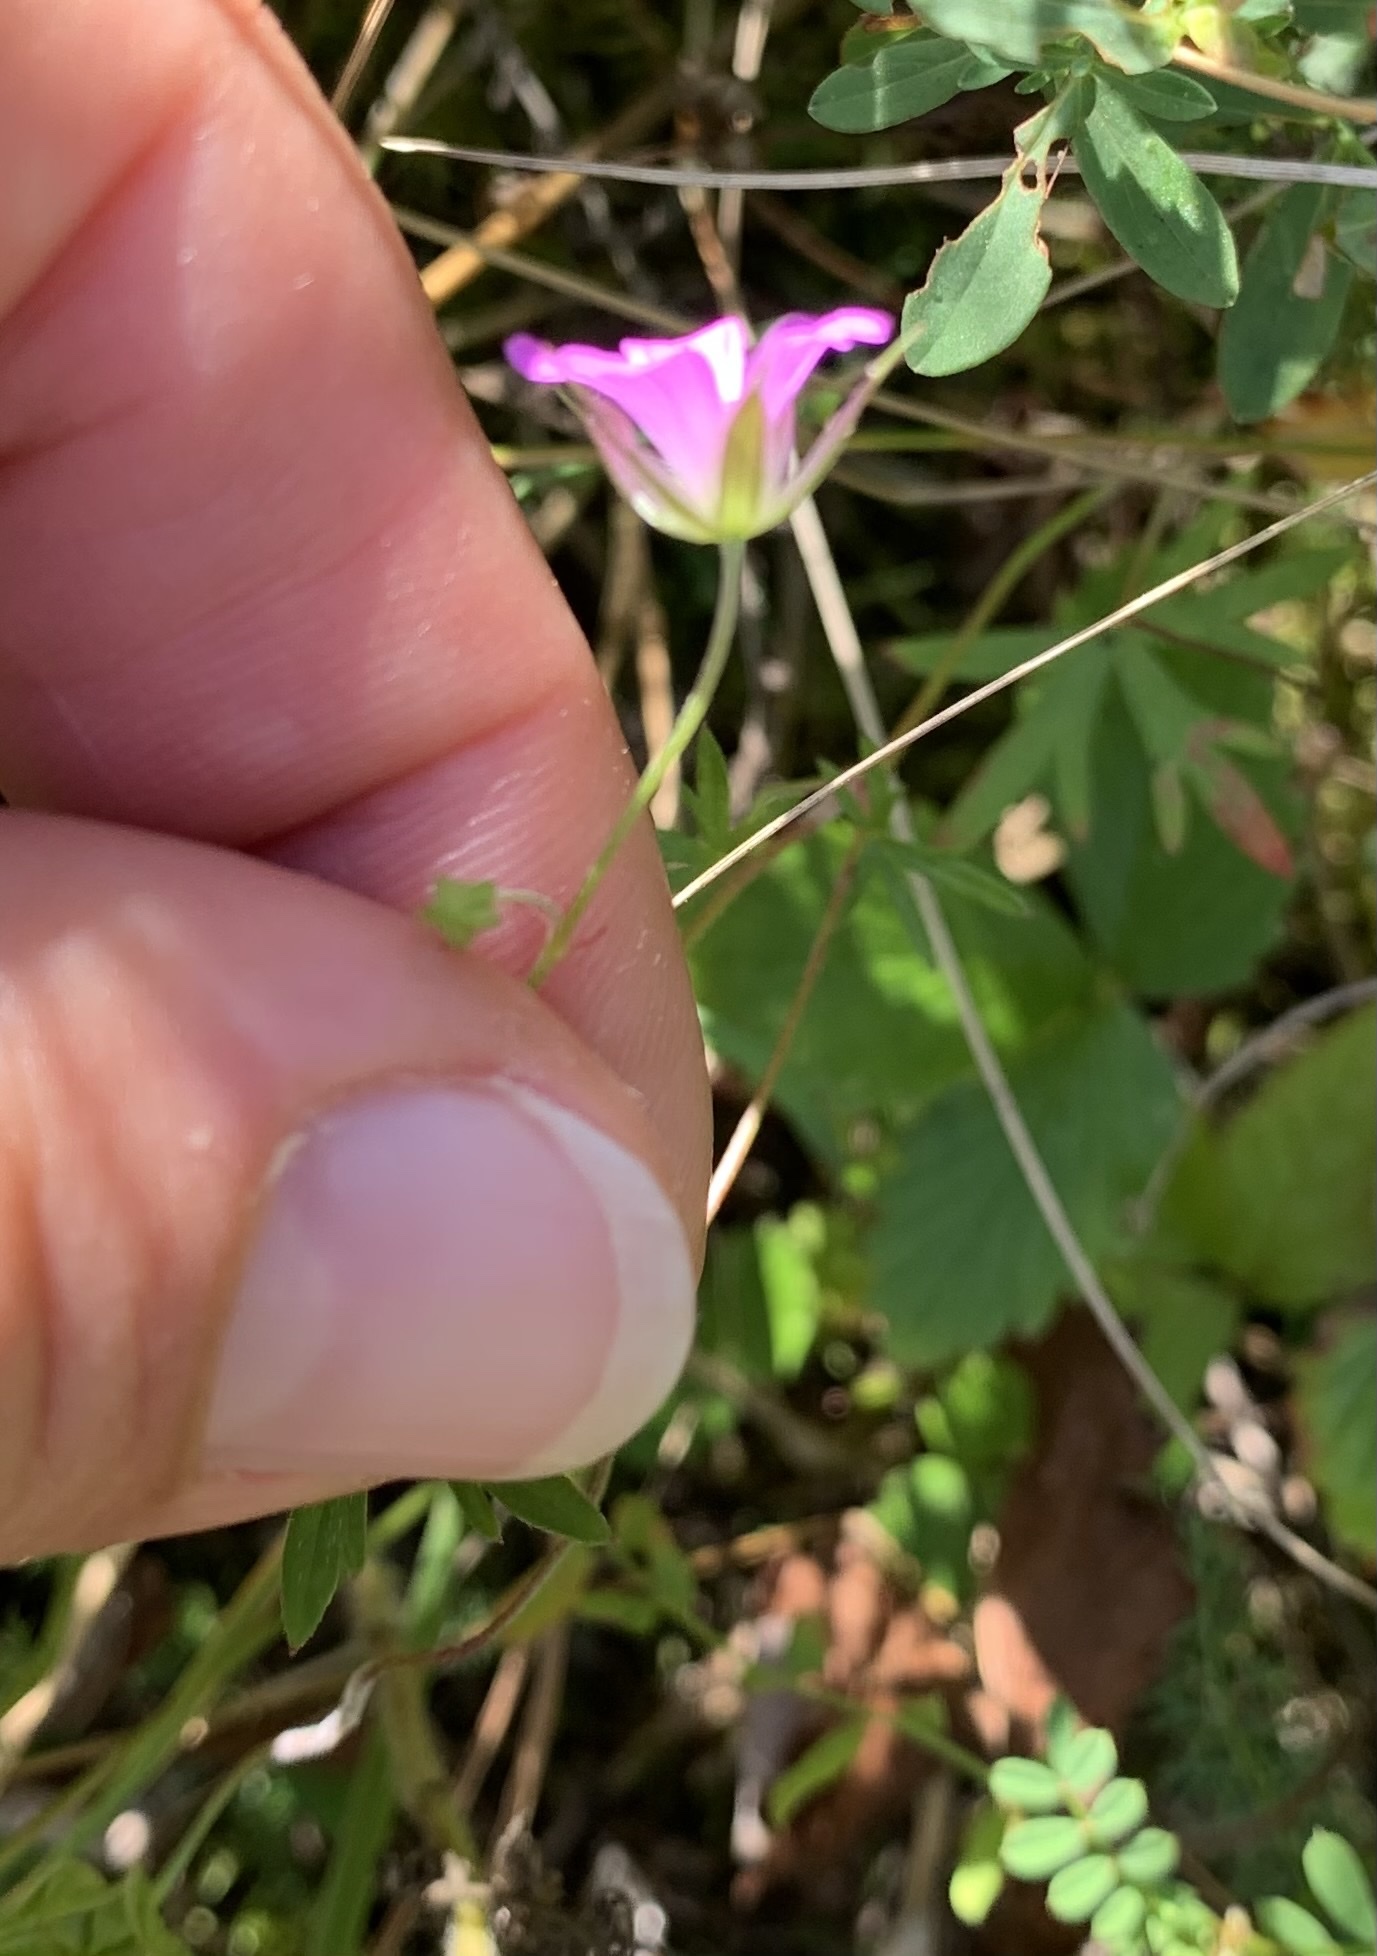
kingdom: Plantae
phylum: Tracheophyta
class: Magnoliopsida
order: Geraniales
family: Geraniaceae
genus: Geranium
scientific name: Geranium columbinum
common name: Long-stalked crane's-bill
